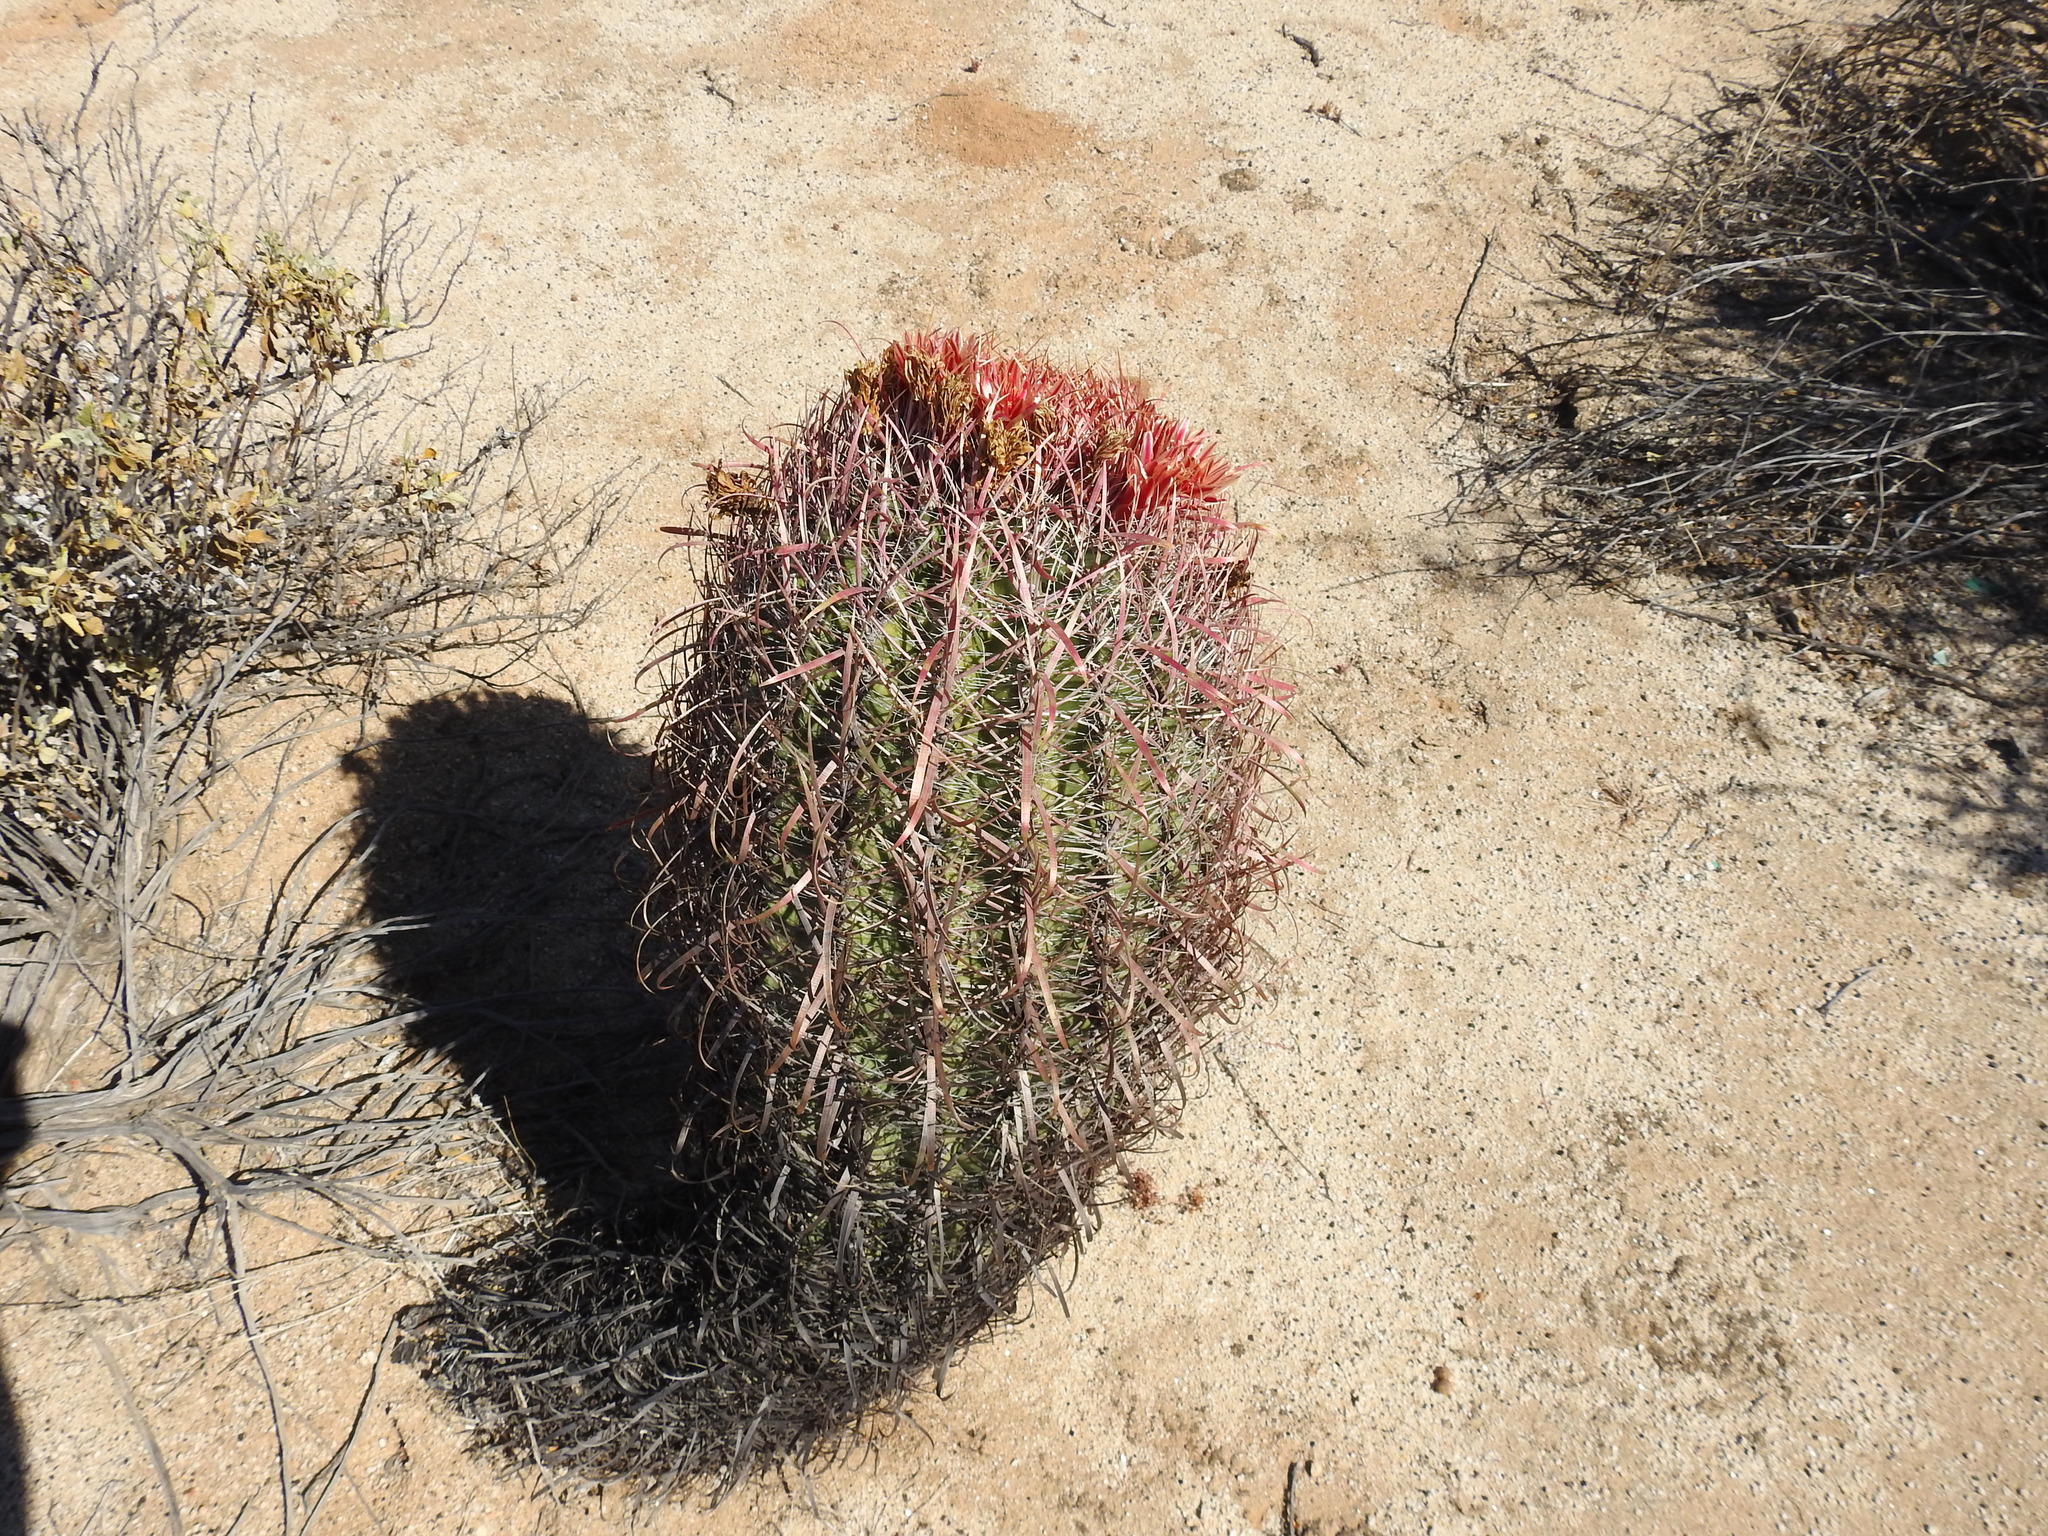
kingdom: Plantae
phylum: Tracheophyta
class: Magnoliopsida
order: Caryophyllales
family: Cactaceae
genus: Ferocactus
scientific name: Ferocactus gracilis
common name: Fire barrel cactus
